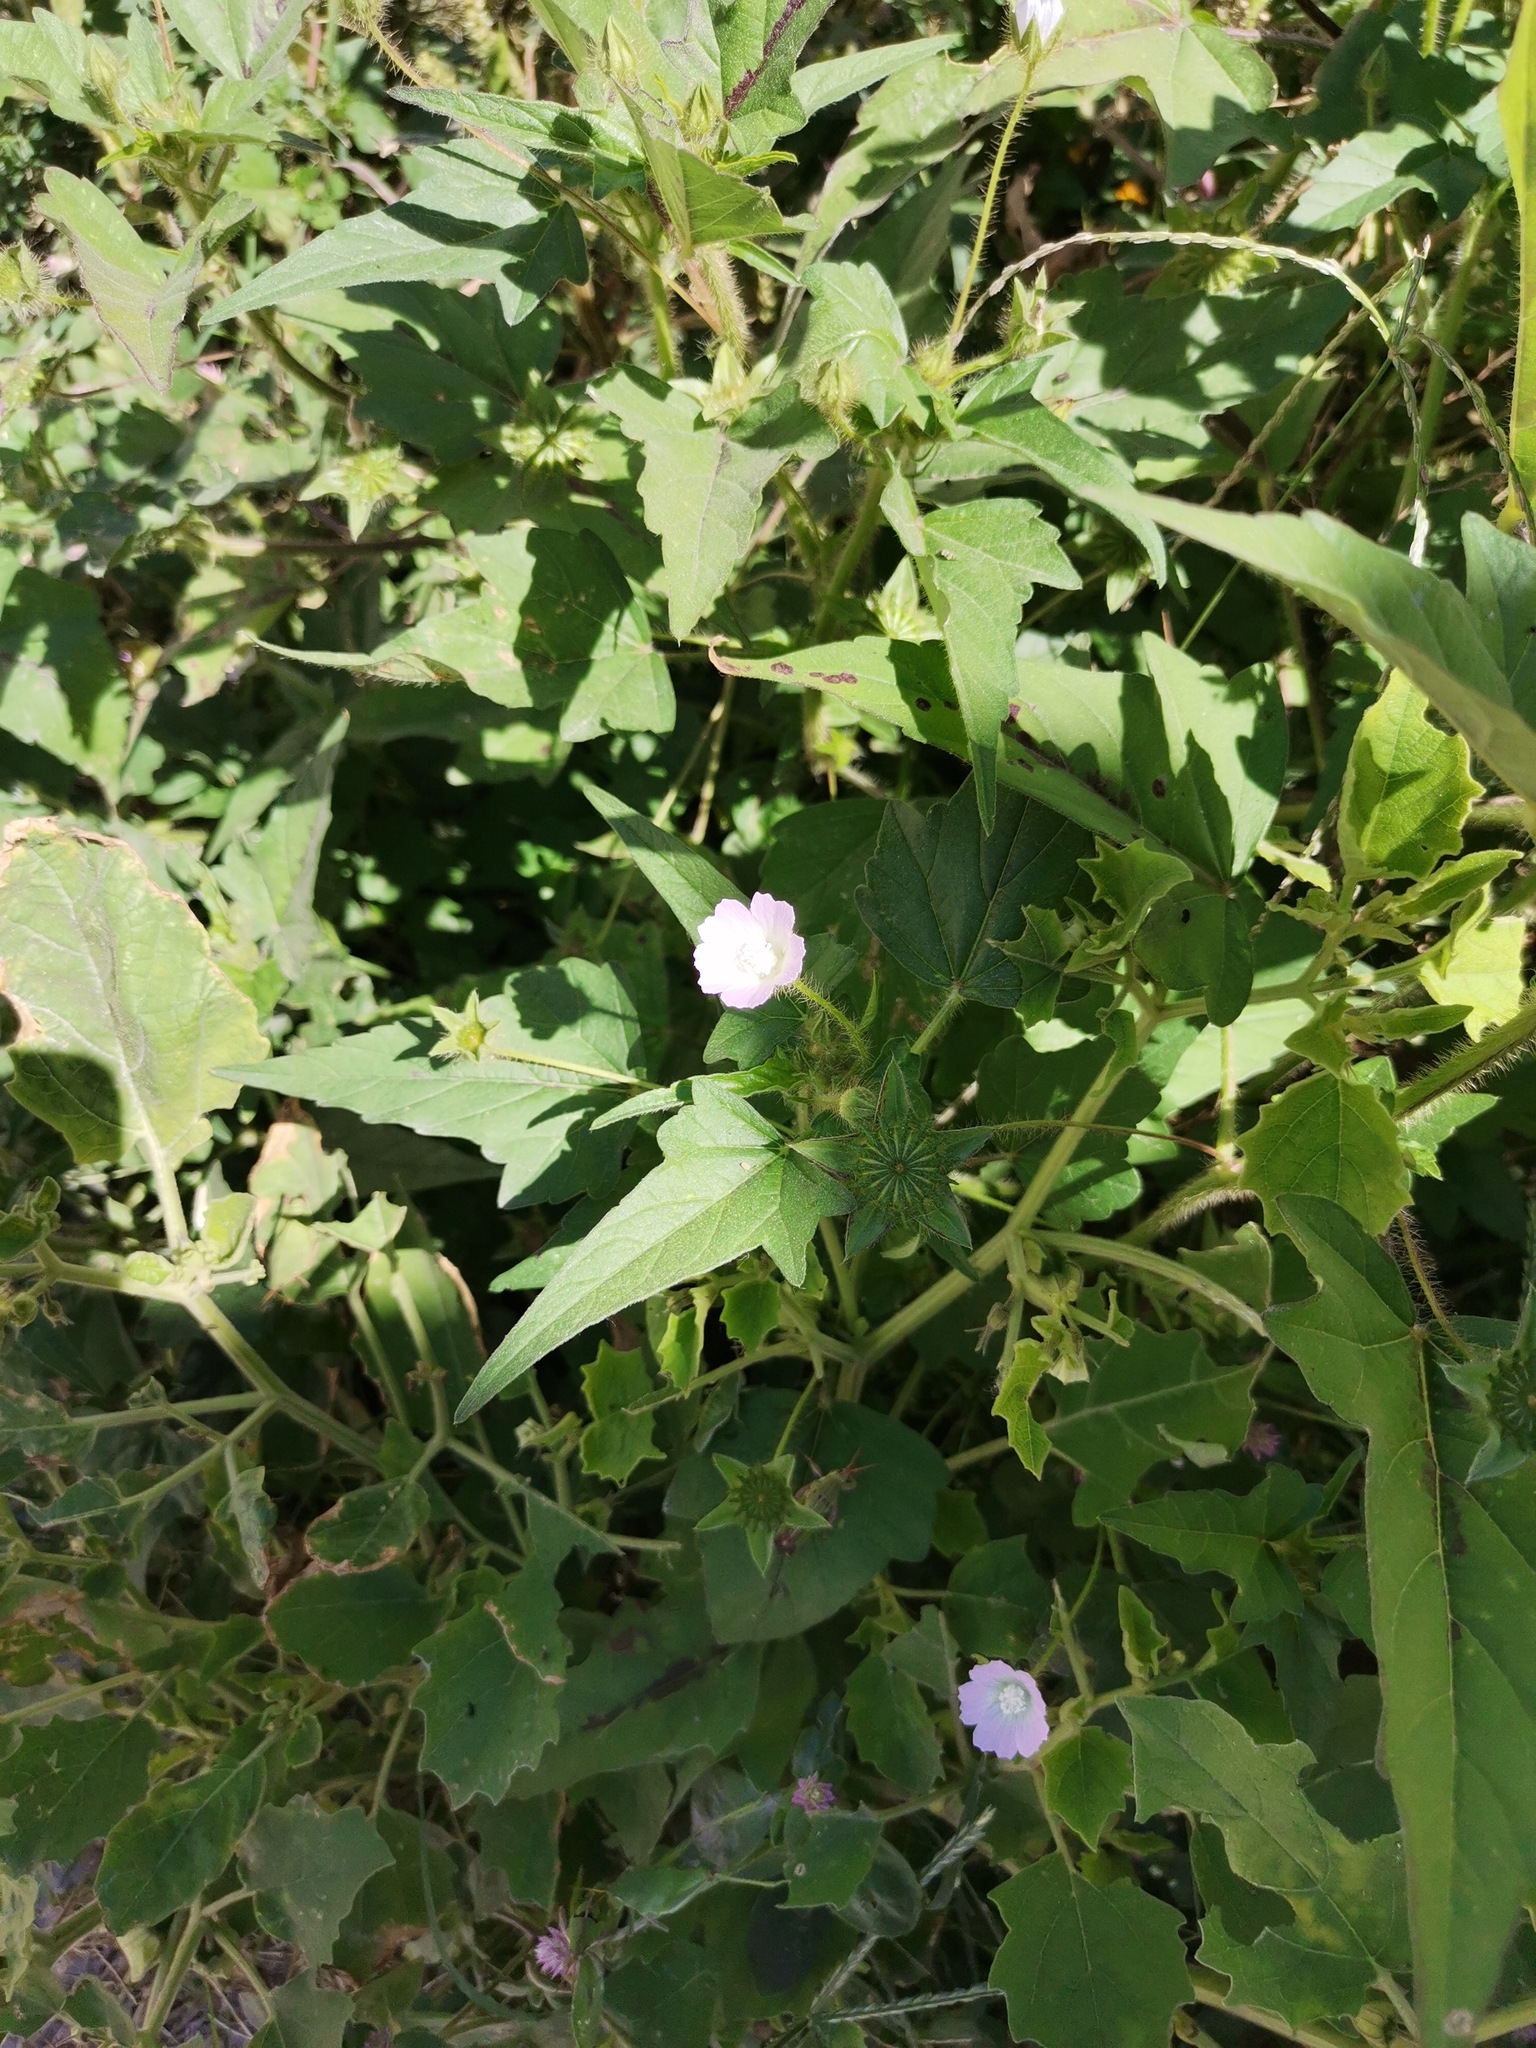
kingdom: Plantae
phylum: Tracheophyta
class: Magnoliopsida
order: Malvales
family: Malvaceae
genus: Anoda
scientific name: Anoda cristata
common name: Spurred anoda
